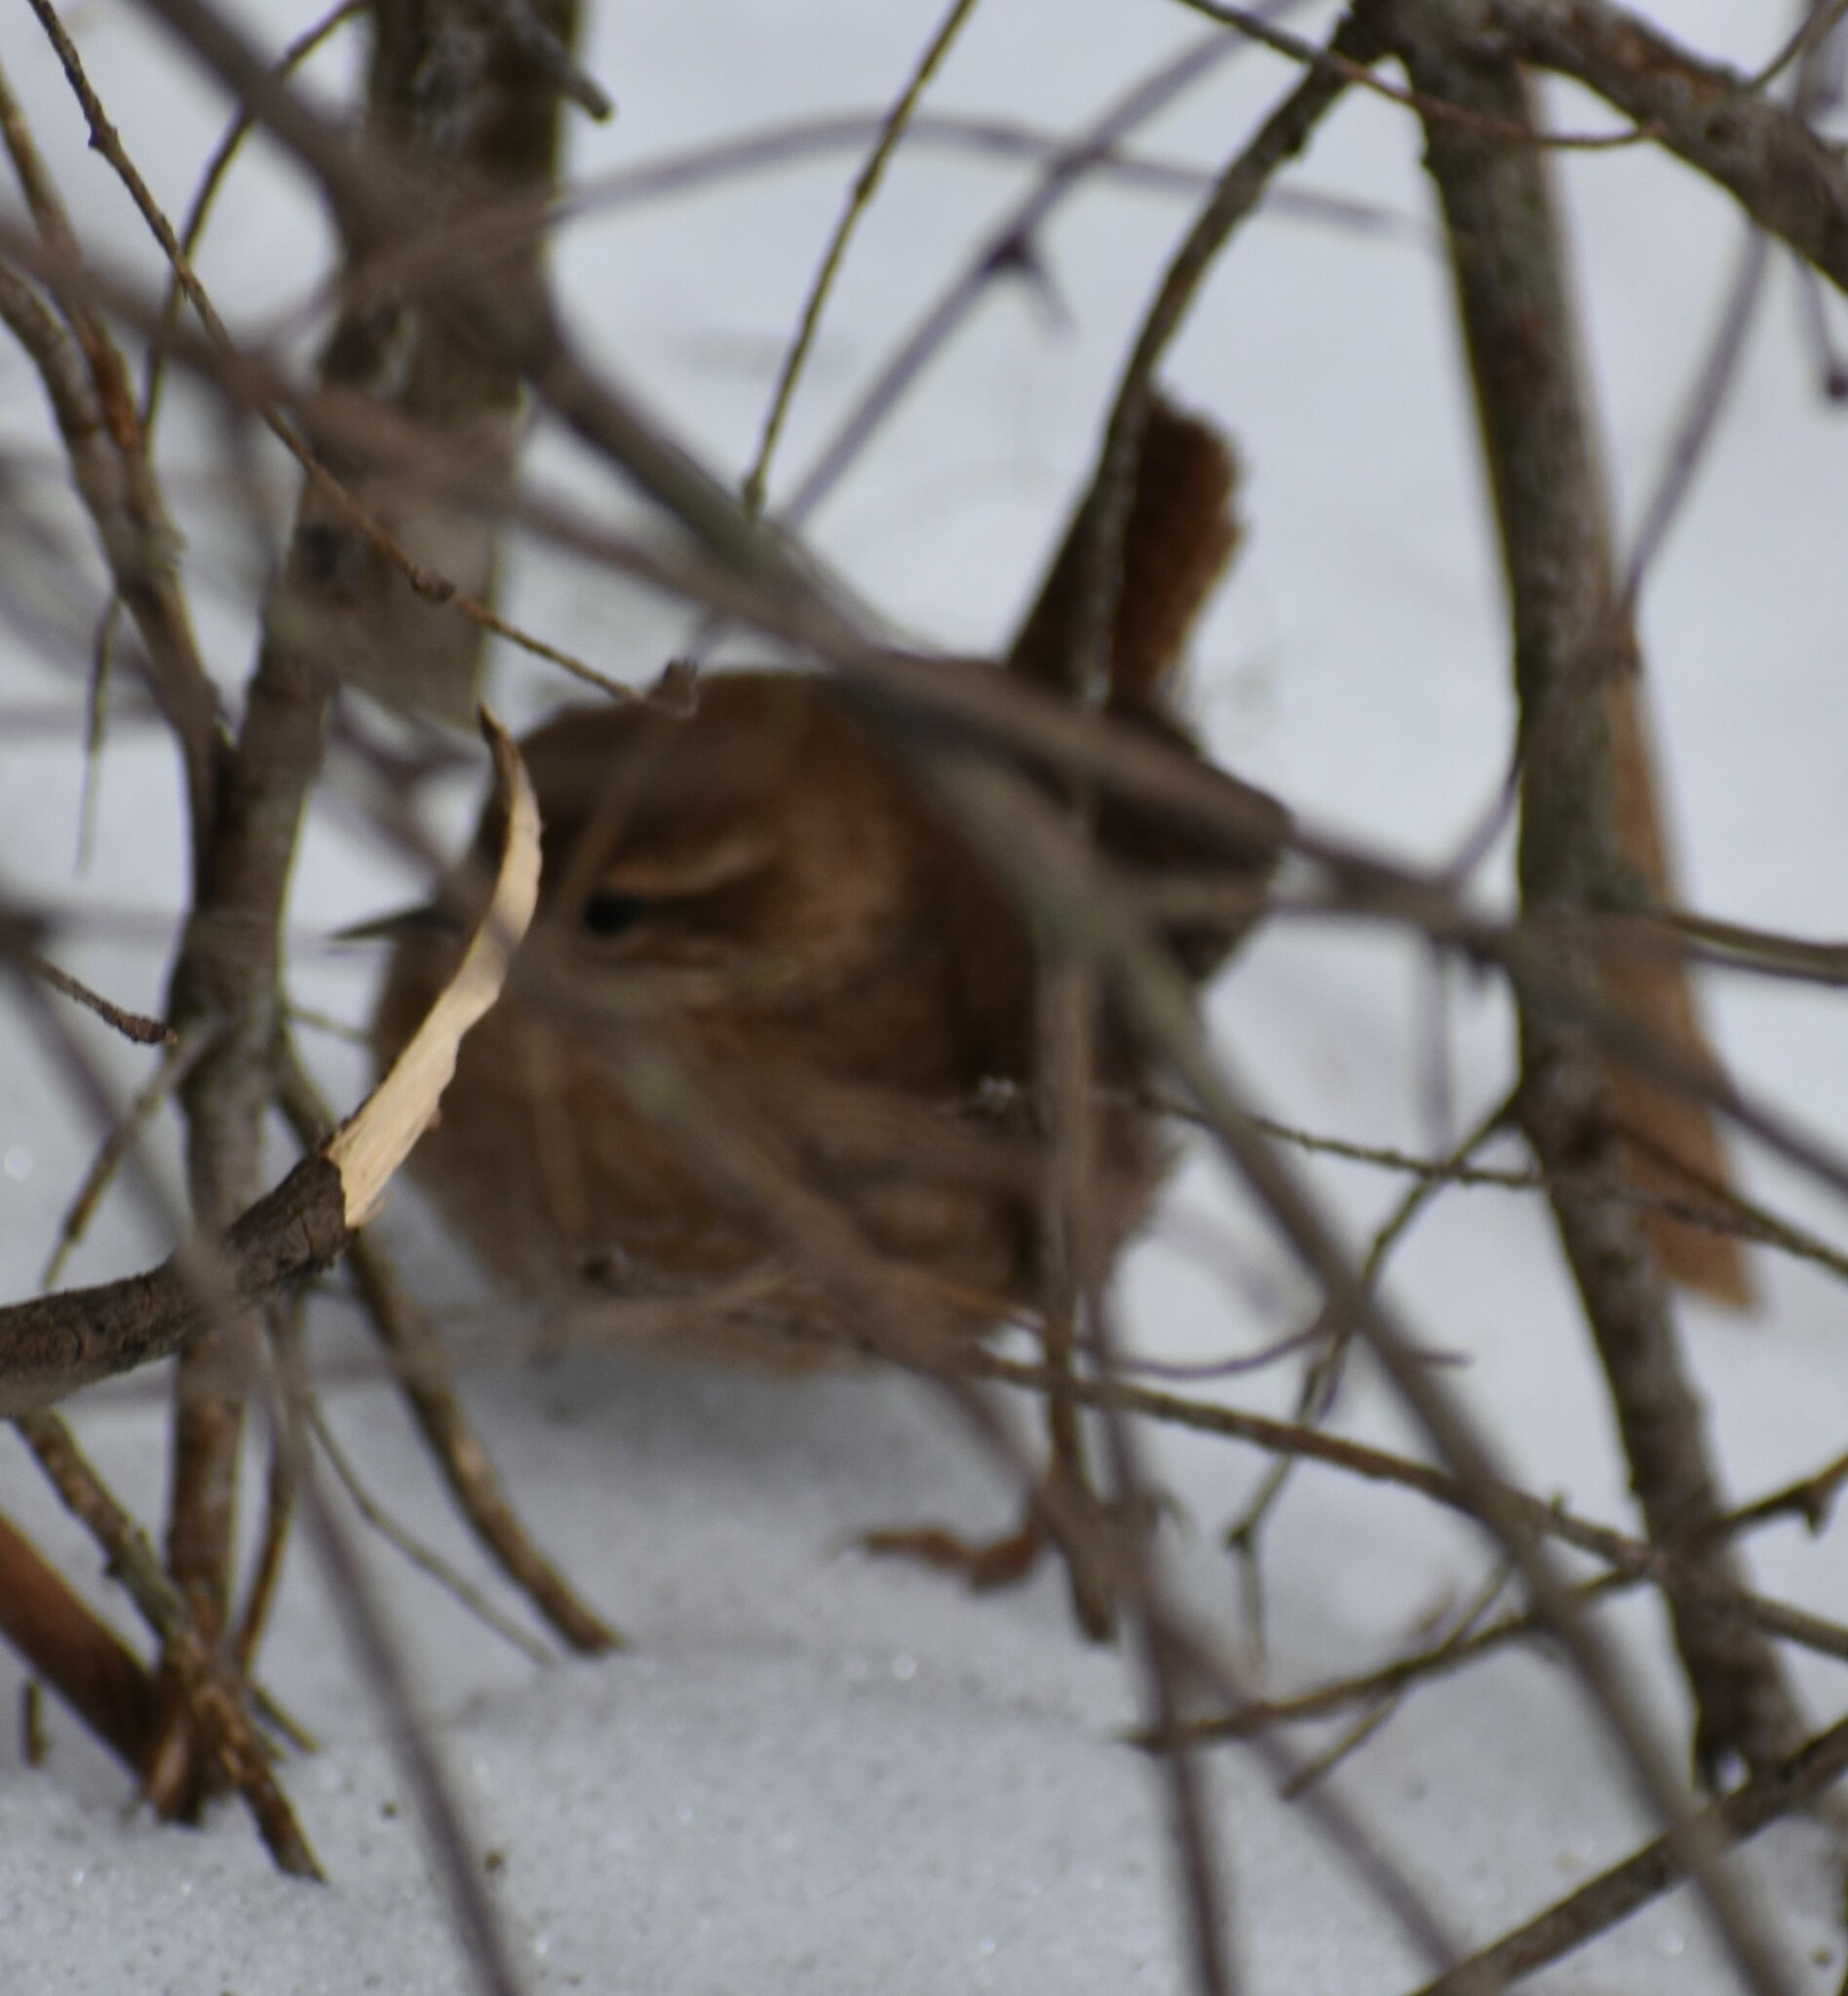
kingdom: Animalia
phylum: Chordata
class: Aves
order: Passeriformes
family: Troglodytidae
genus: Troglodytes
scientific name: Troglodytes hiemalis
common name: Winter wren
